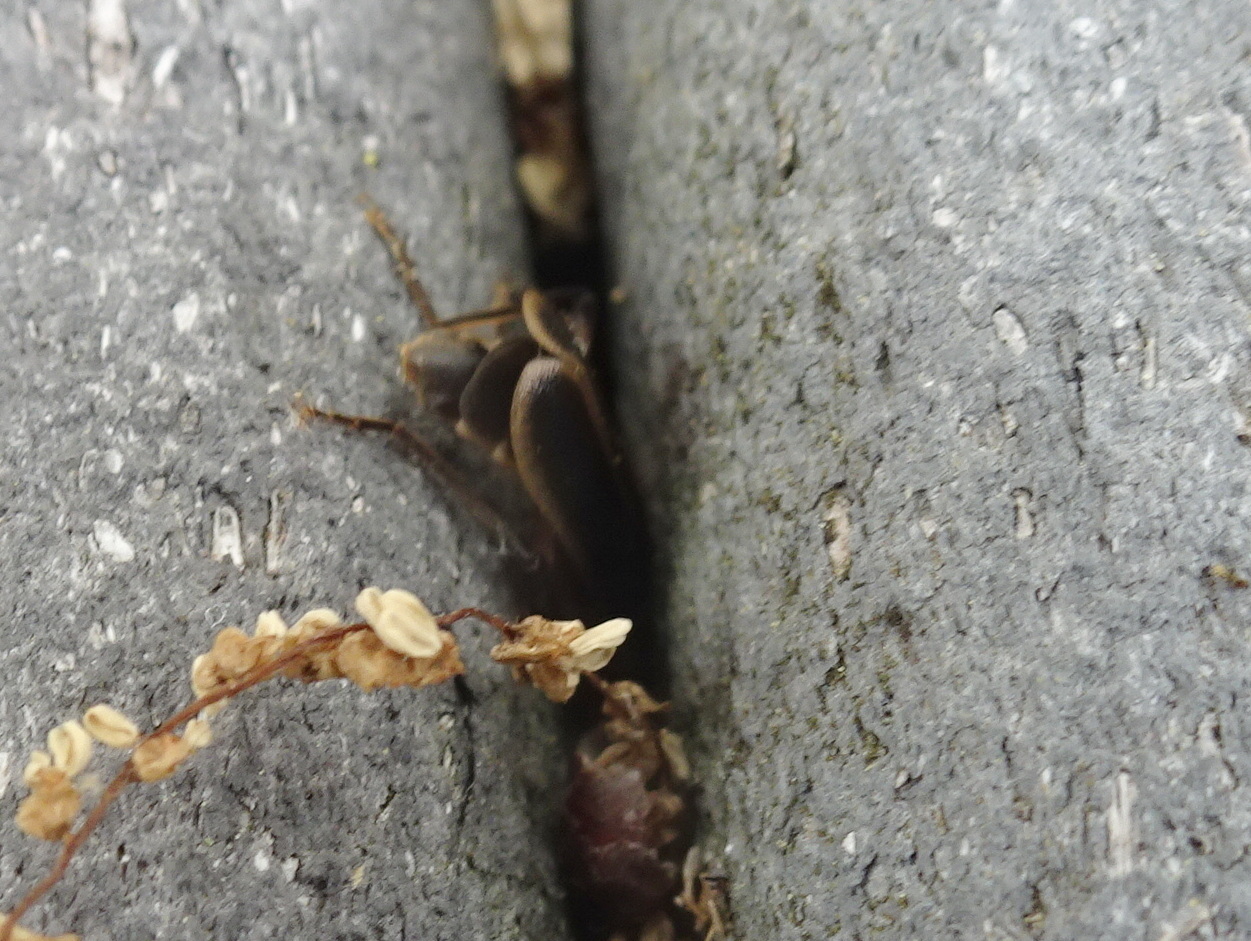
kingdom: Animalia
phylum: Arthropoda
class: Insecta
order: Coleoptera
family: Cantharidae
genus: Podabrus
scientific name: Podabrus basilaris
